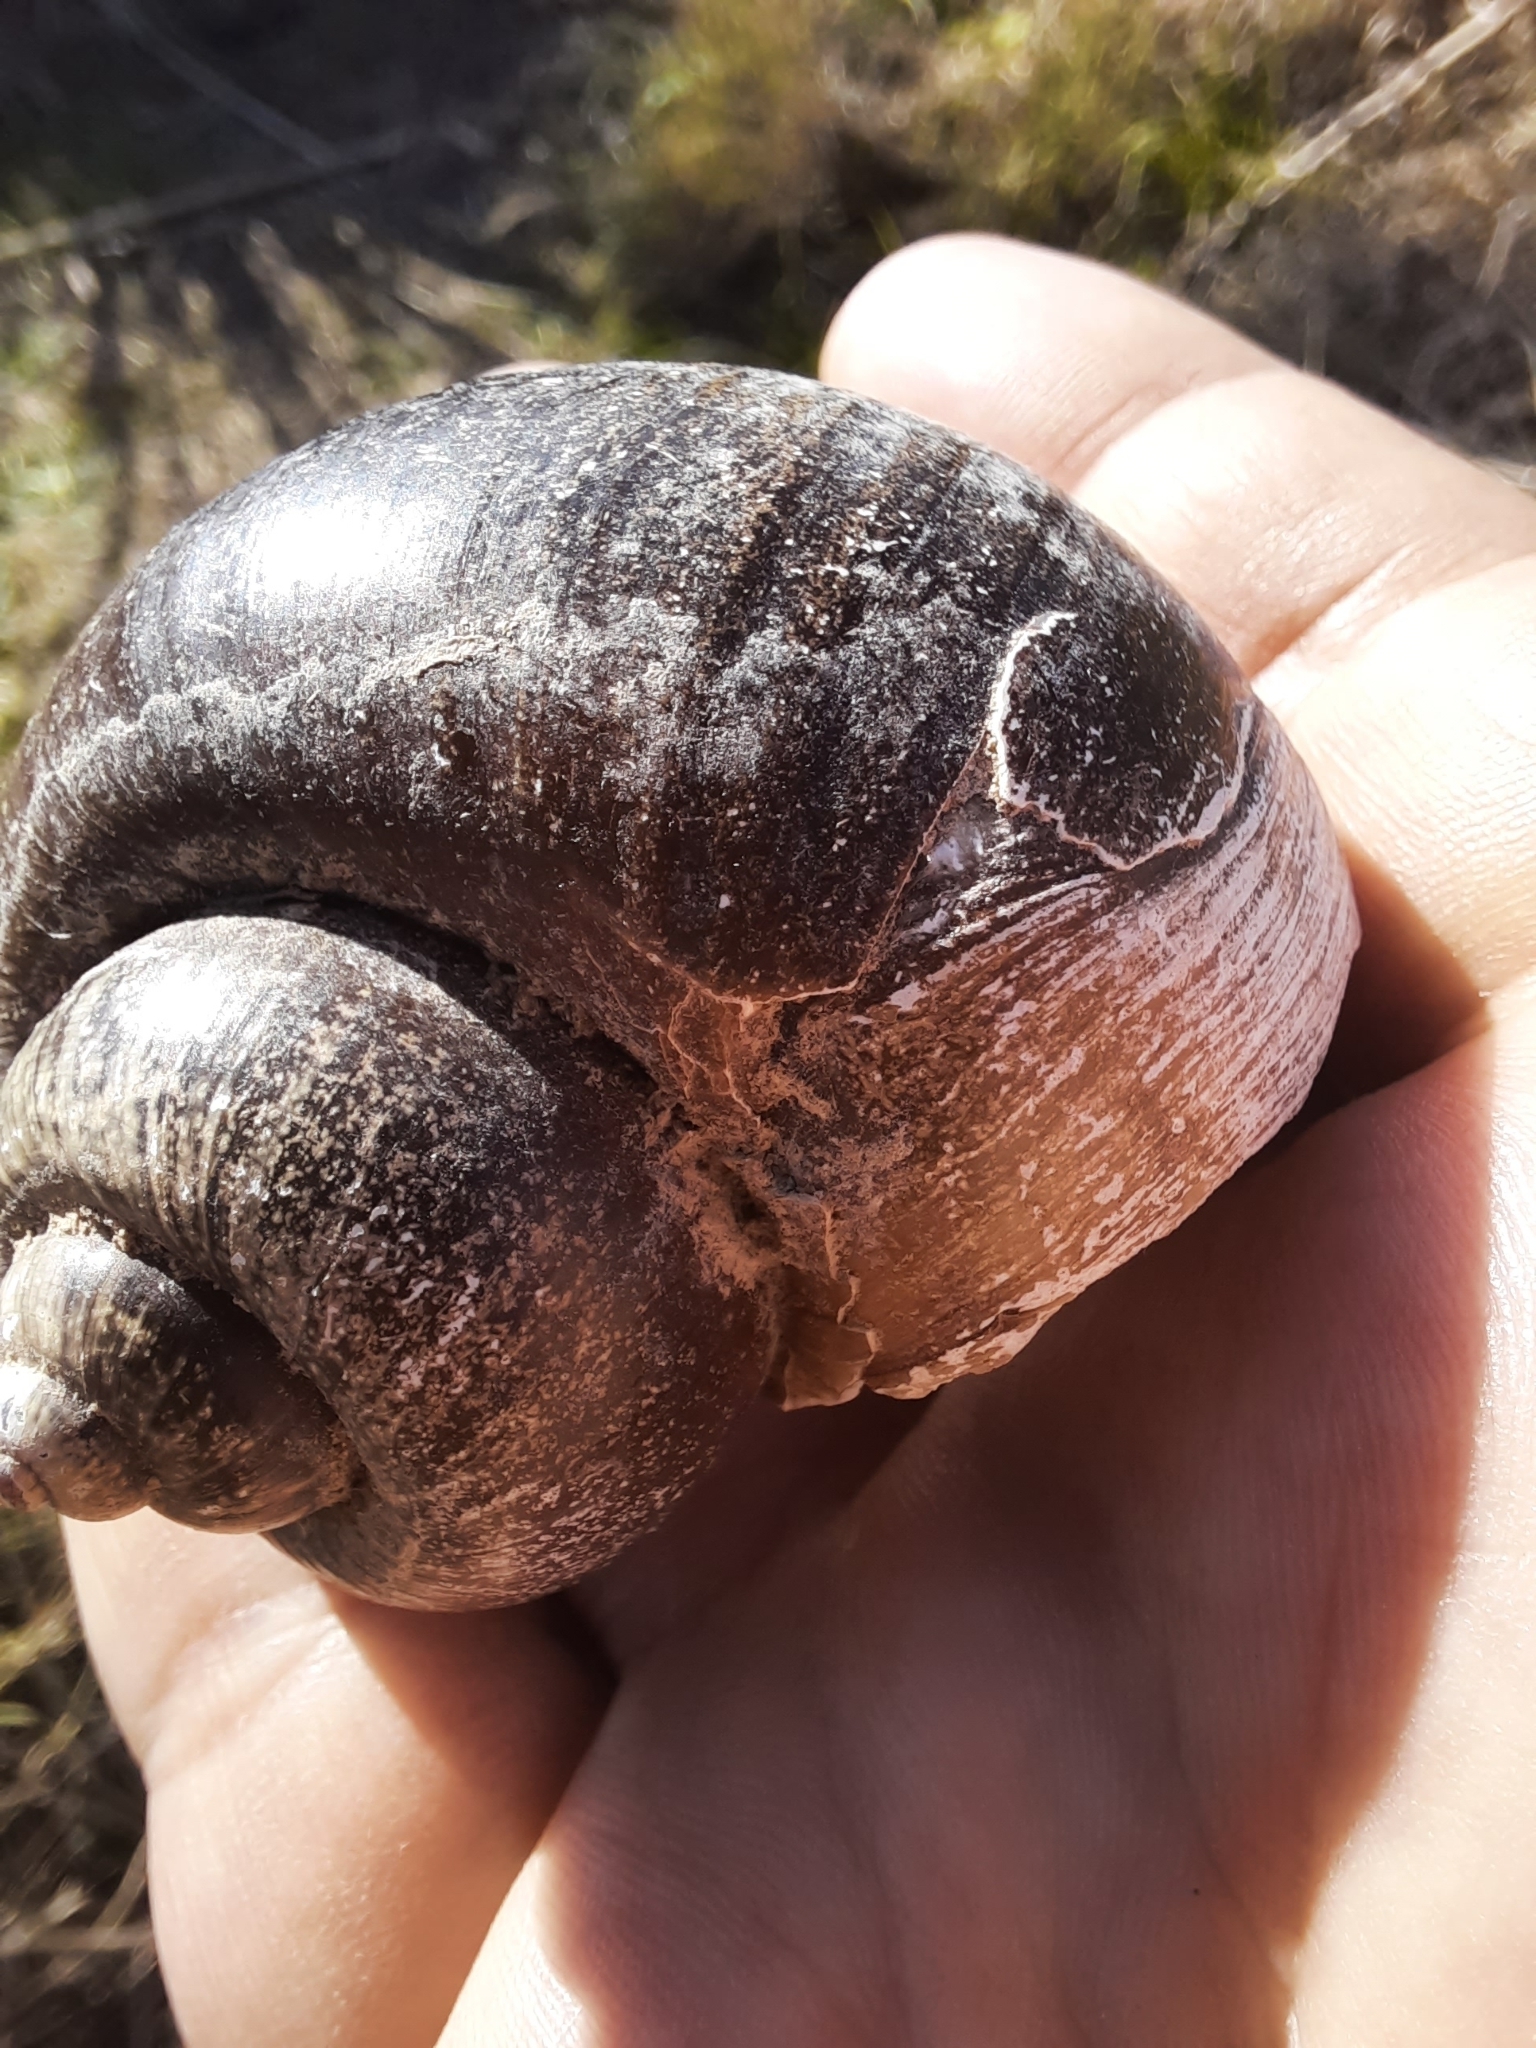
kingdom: Animalia
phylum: Mollusca
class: Gastropoda
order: Architaenioglossa
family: Ampullariidae
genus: Pomacea
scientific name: Pomacea canaliculata
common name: Channeled applesnail
